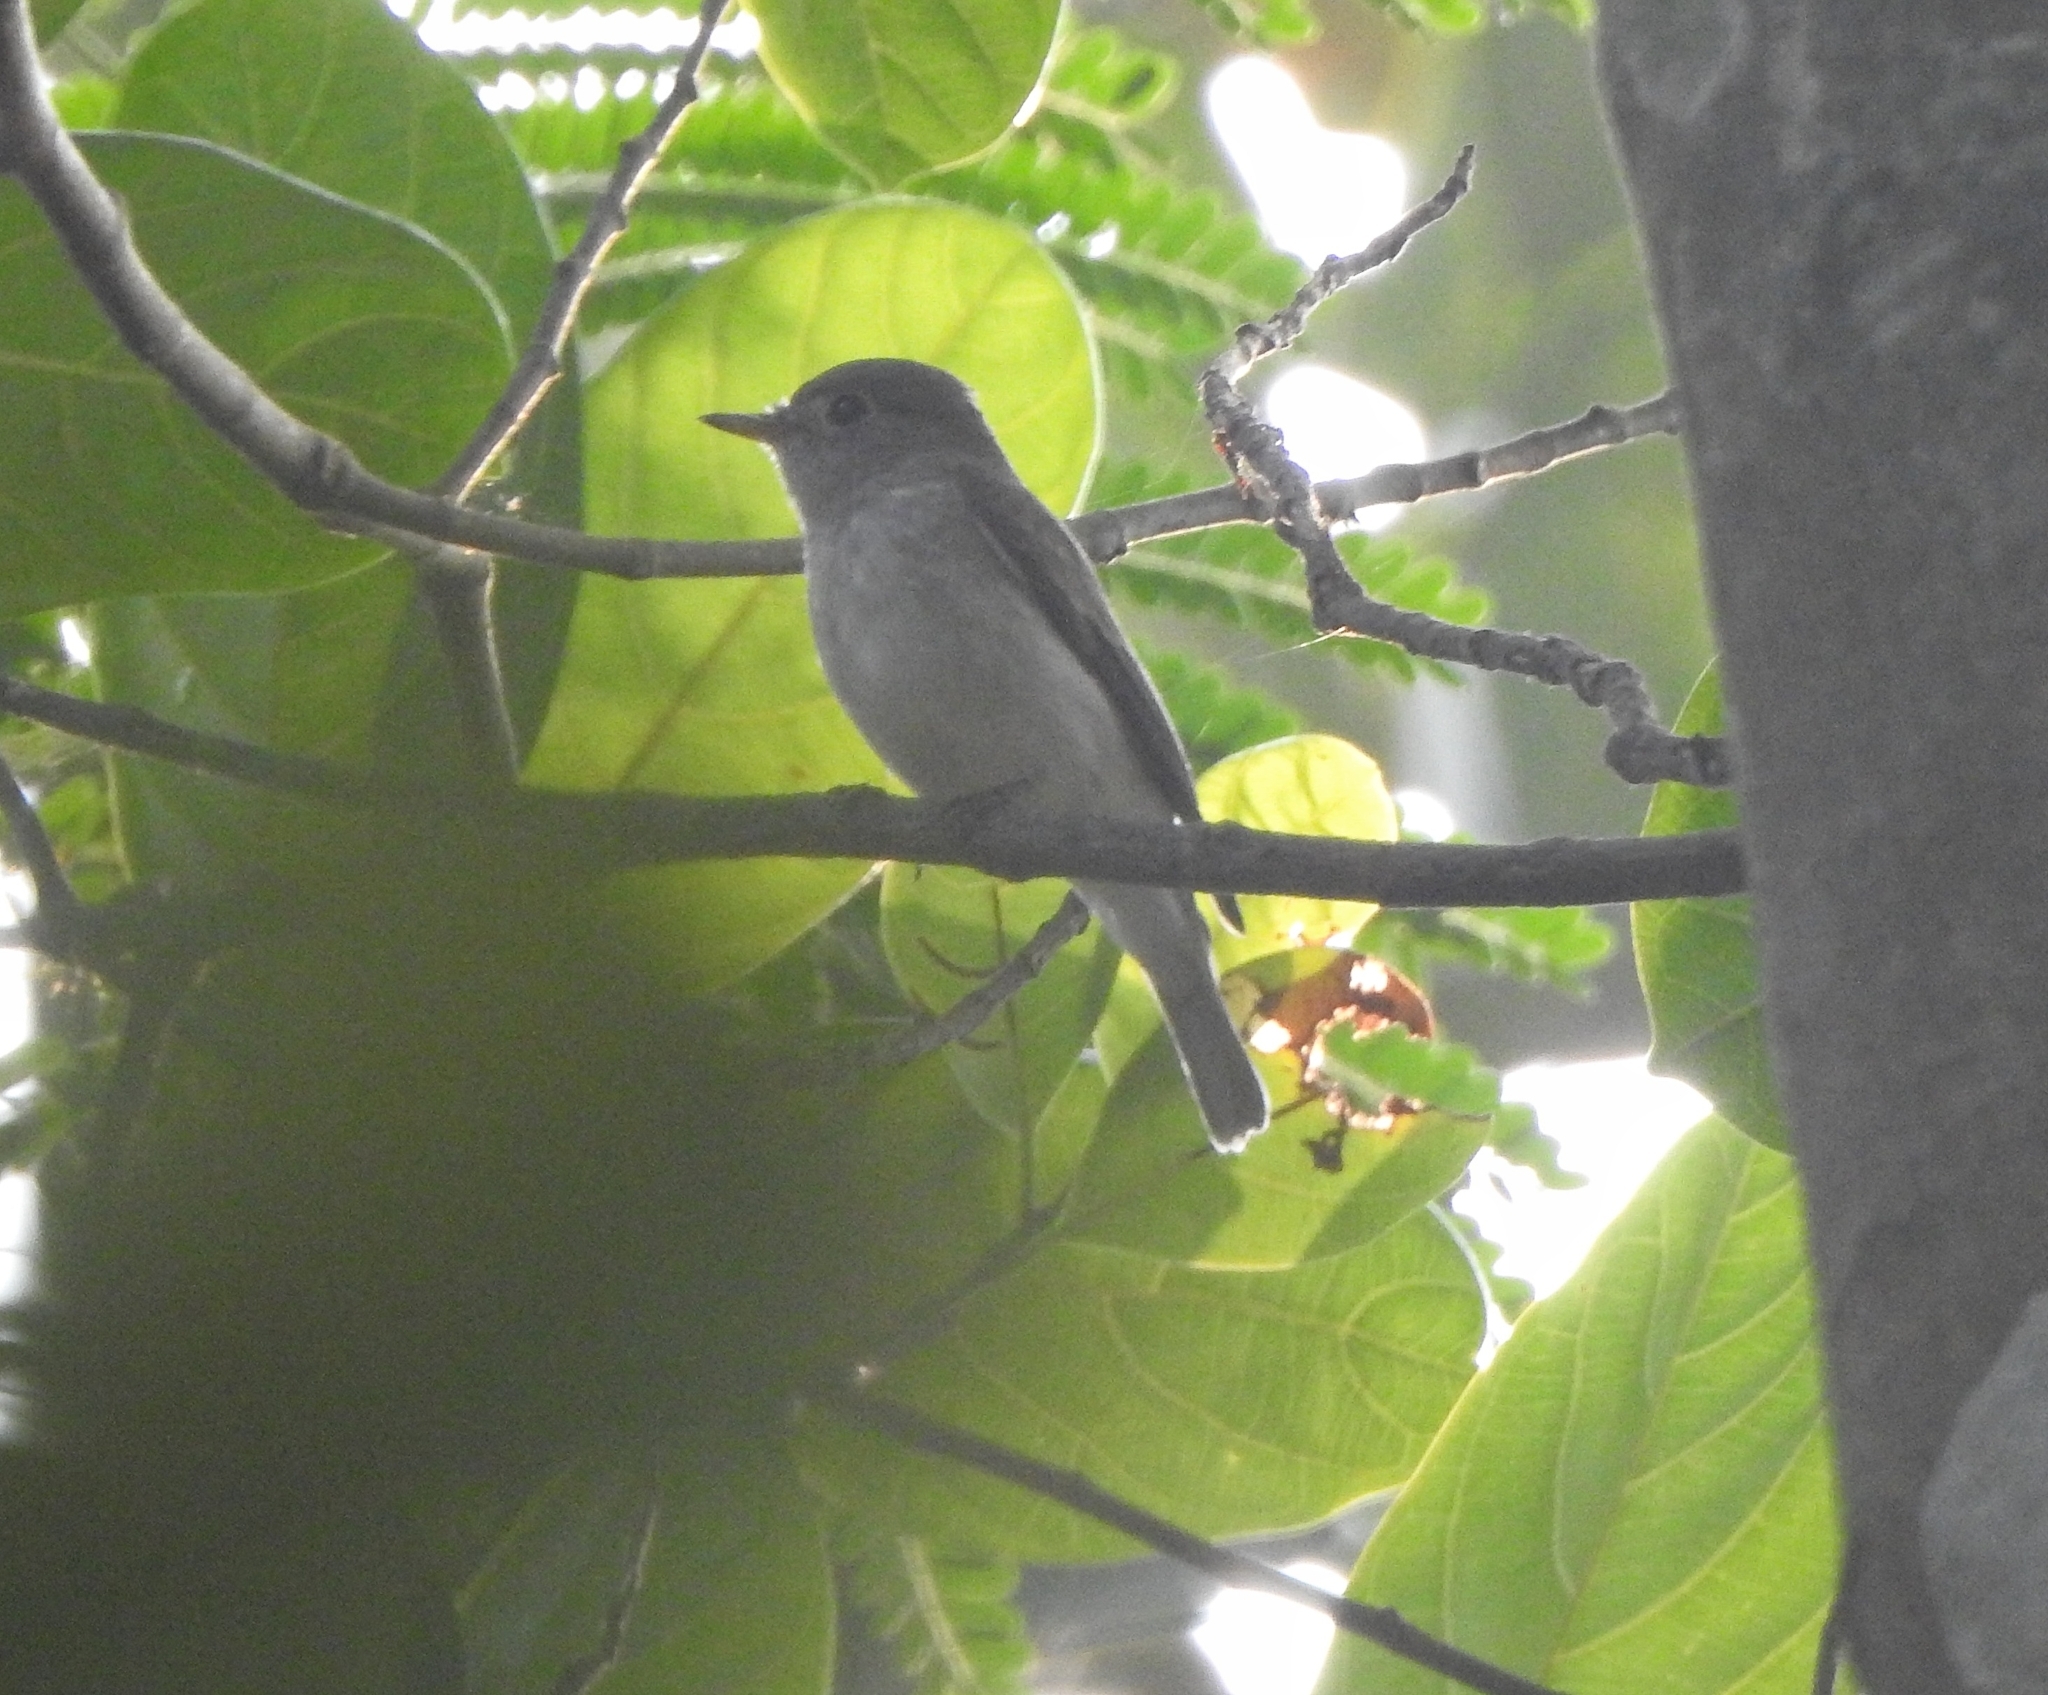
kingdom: Animalia
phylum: Chordata
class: Aves
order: Passeriformes
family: Muscicapidae
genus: Muscicapa
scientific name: Muscicapa latirostris
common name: Asian brown flycatcher
